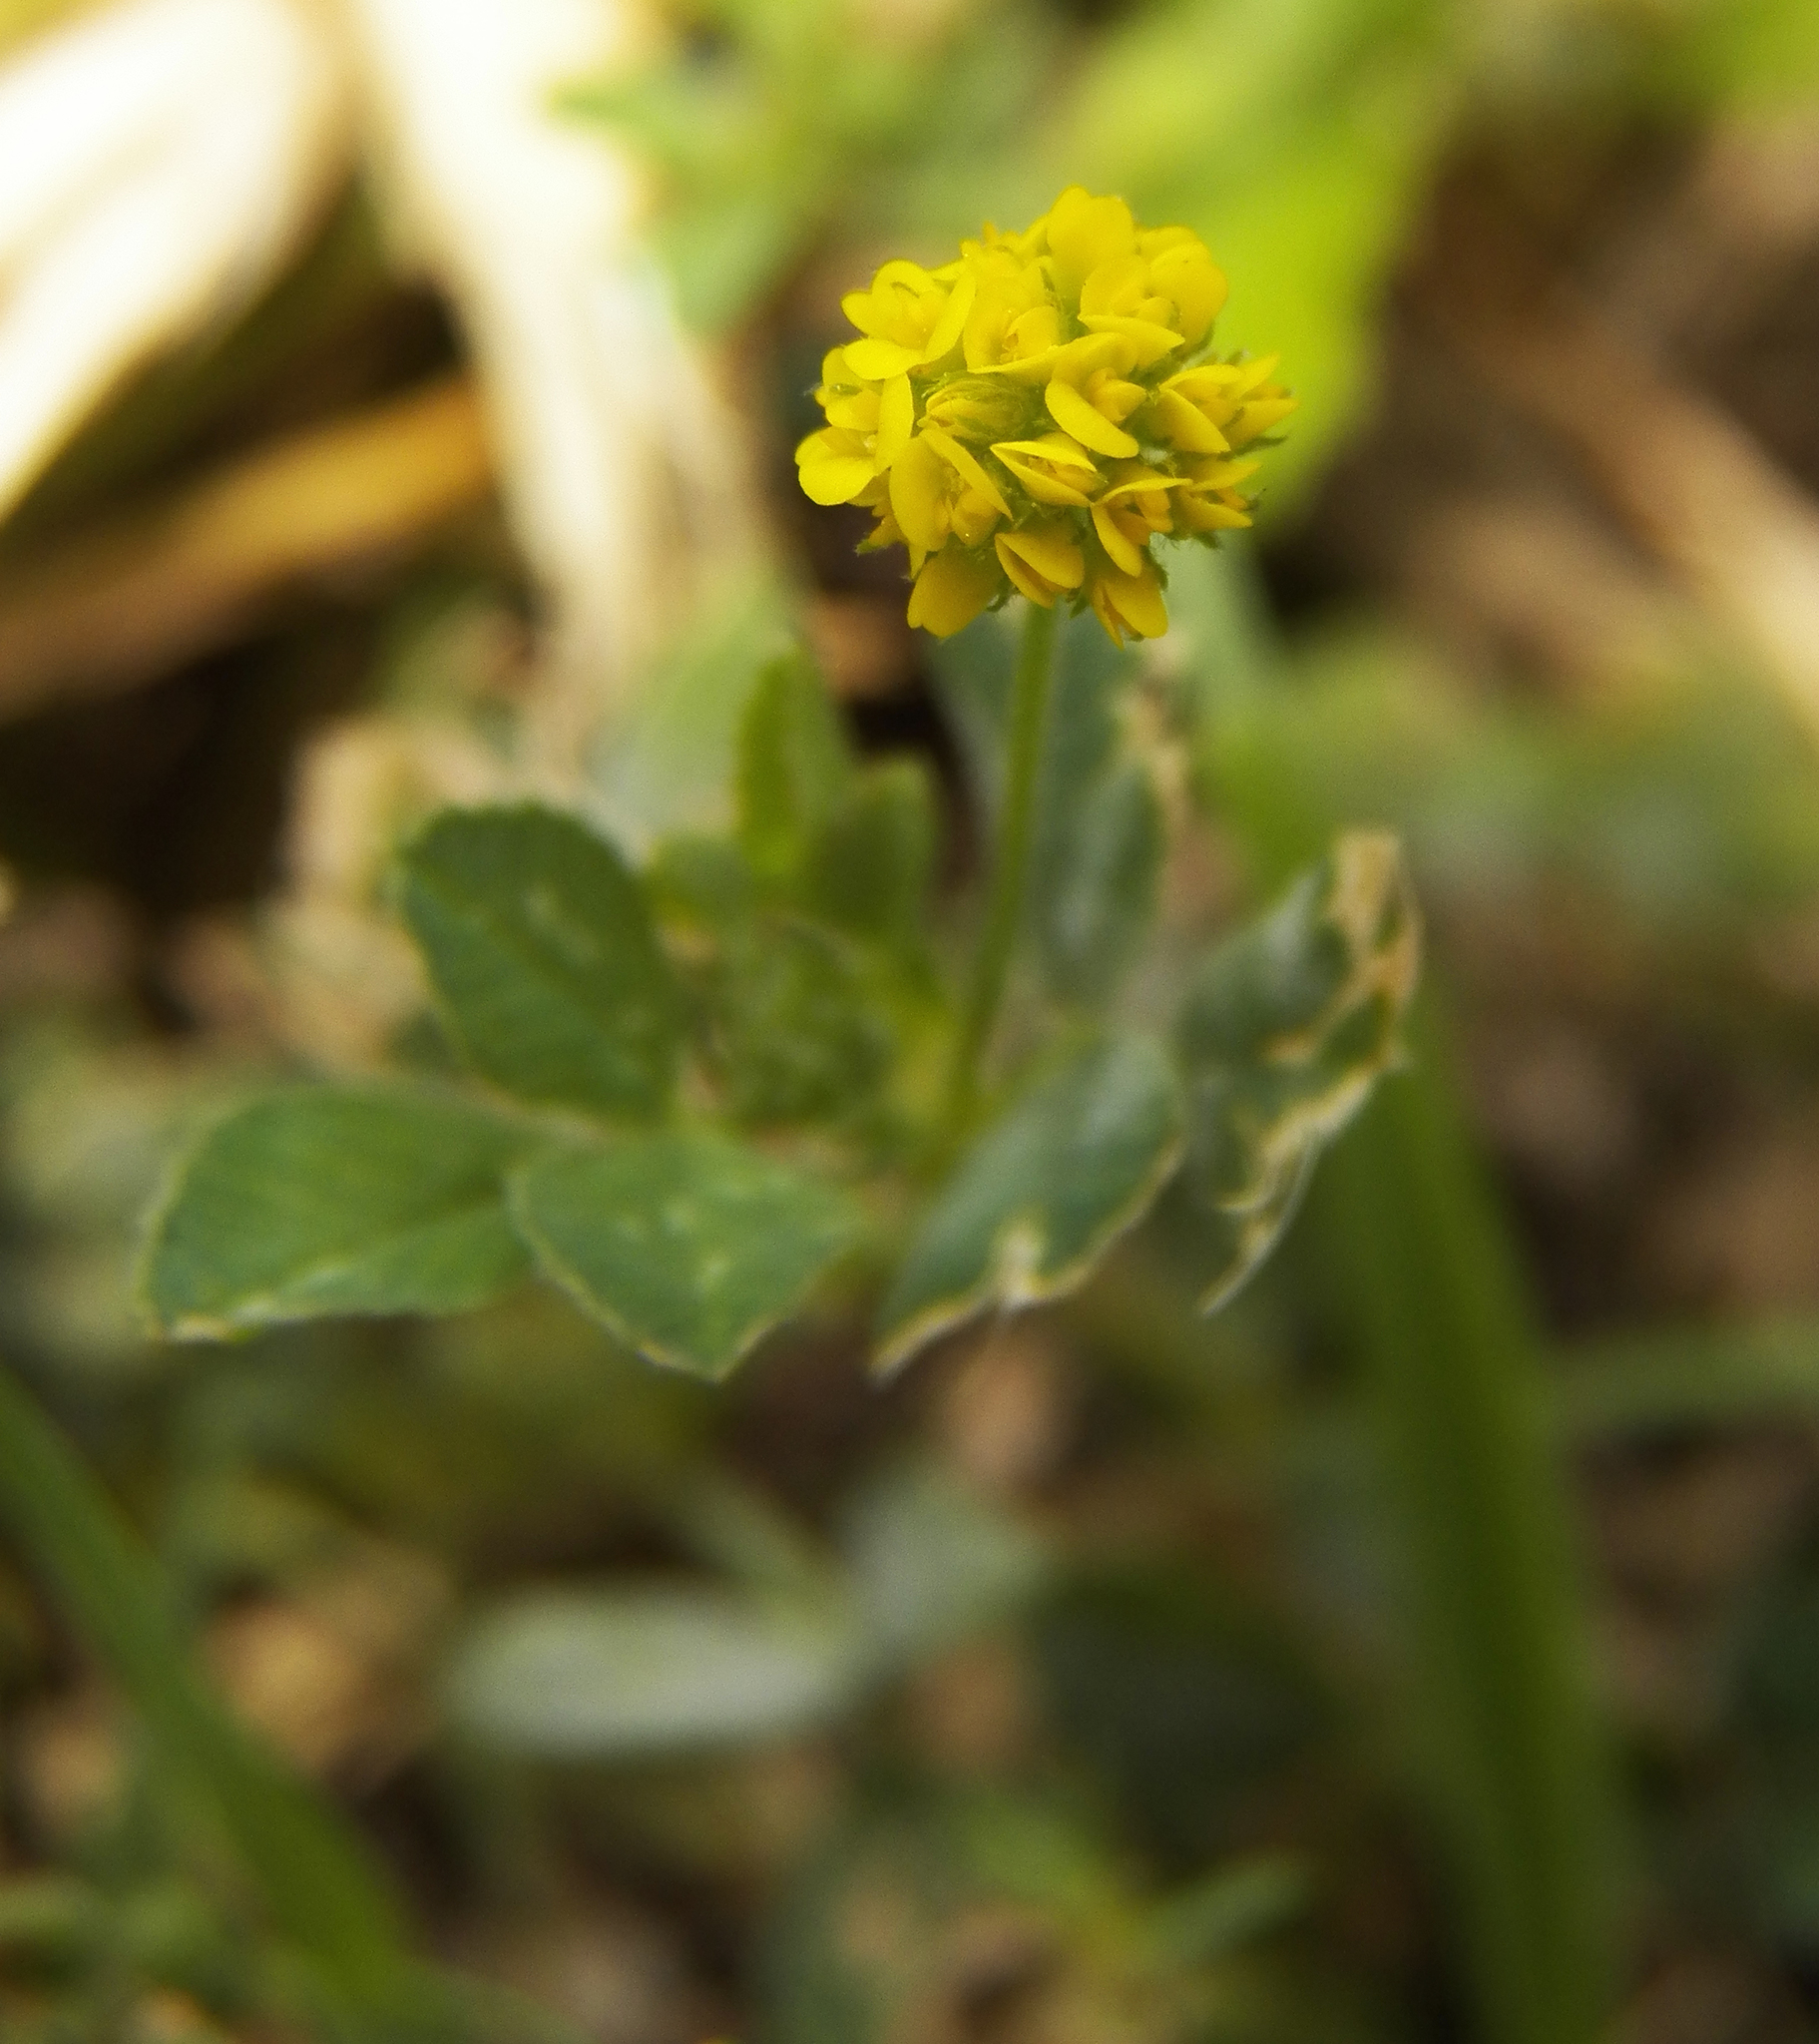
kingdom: Plantae
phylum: Tracheophyta
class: Magnoliopsida
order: Fabales
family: Fabaceae
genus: Medicago
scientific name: Medicago lupulina
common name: Black medick
